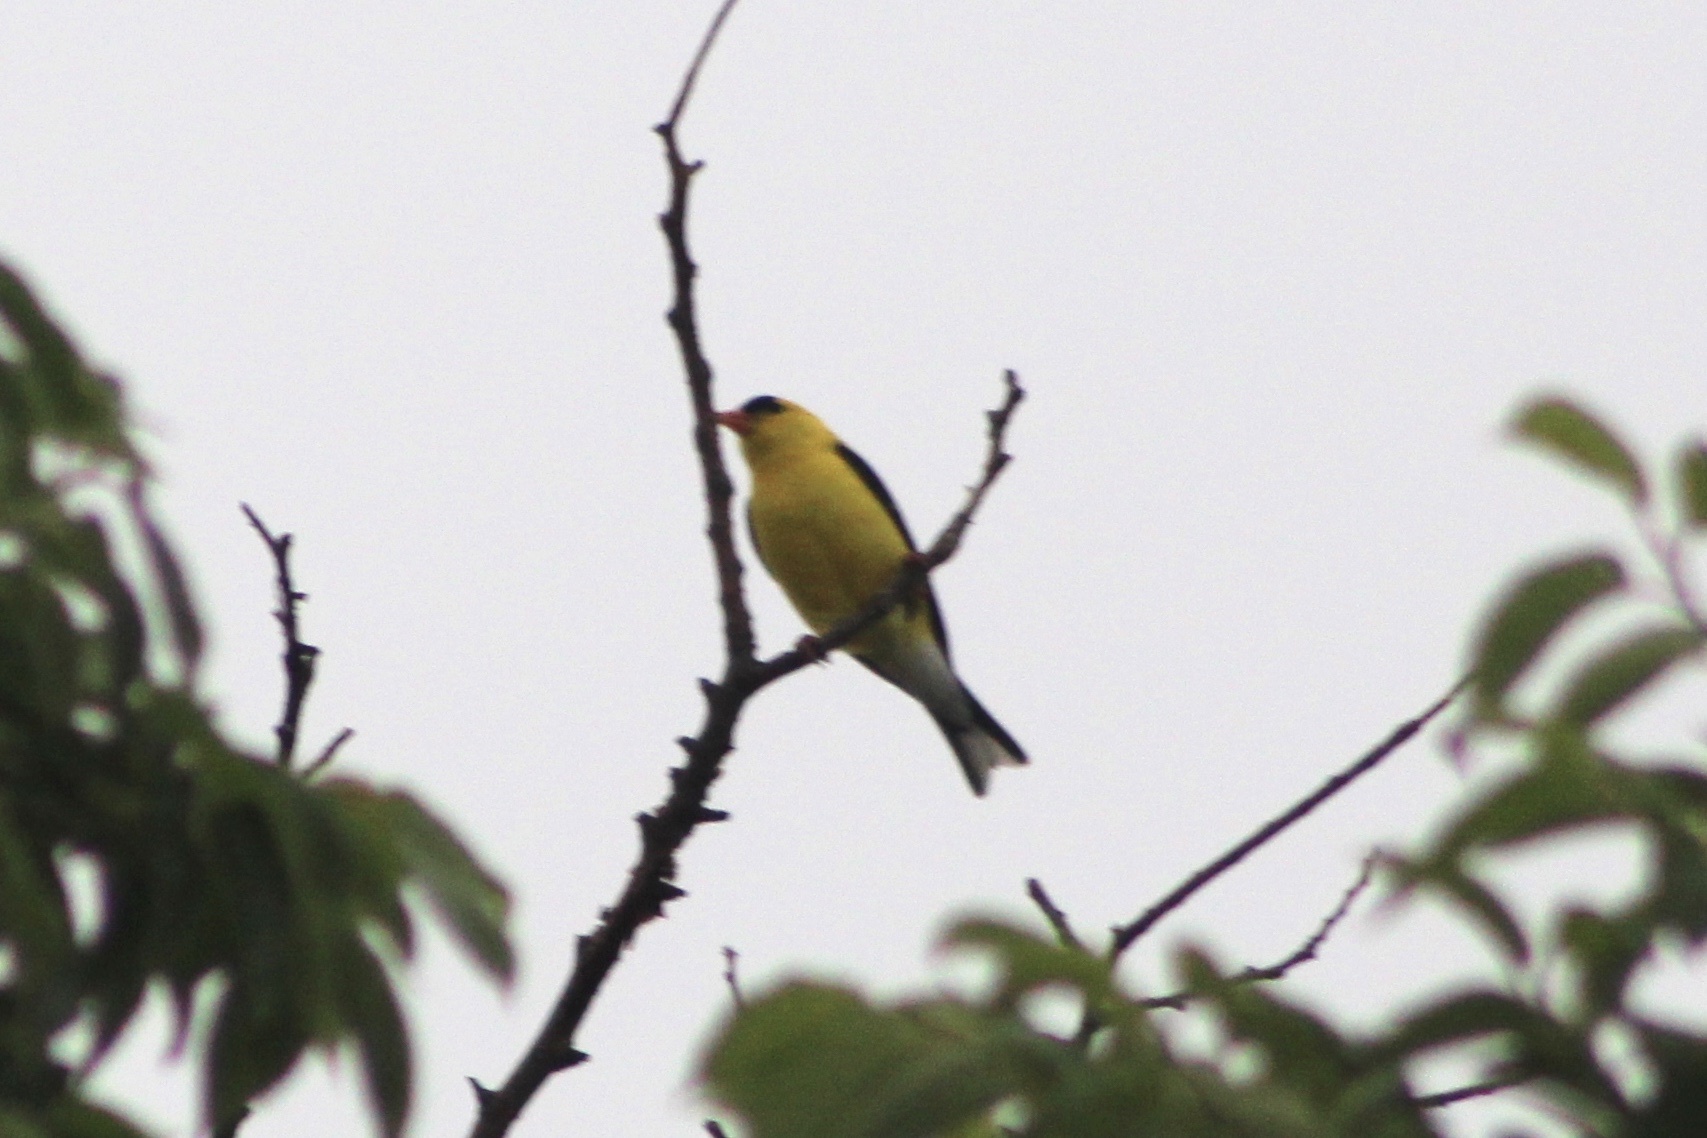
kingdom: Animalia
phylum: Chordata
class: Aves
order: Passeriformes
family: Fringillidae
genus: Spinus
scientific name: Spinus tristis
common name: American goldfinch
